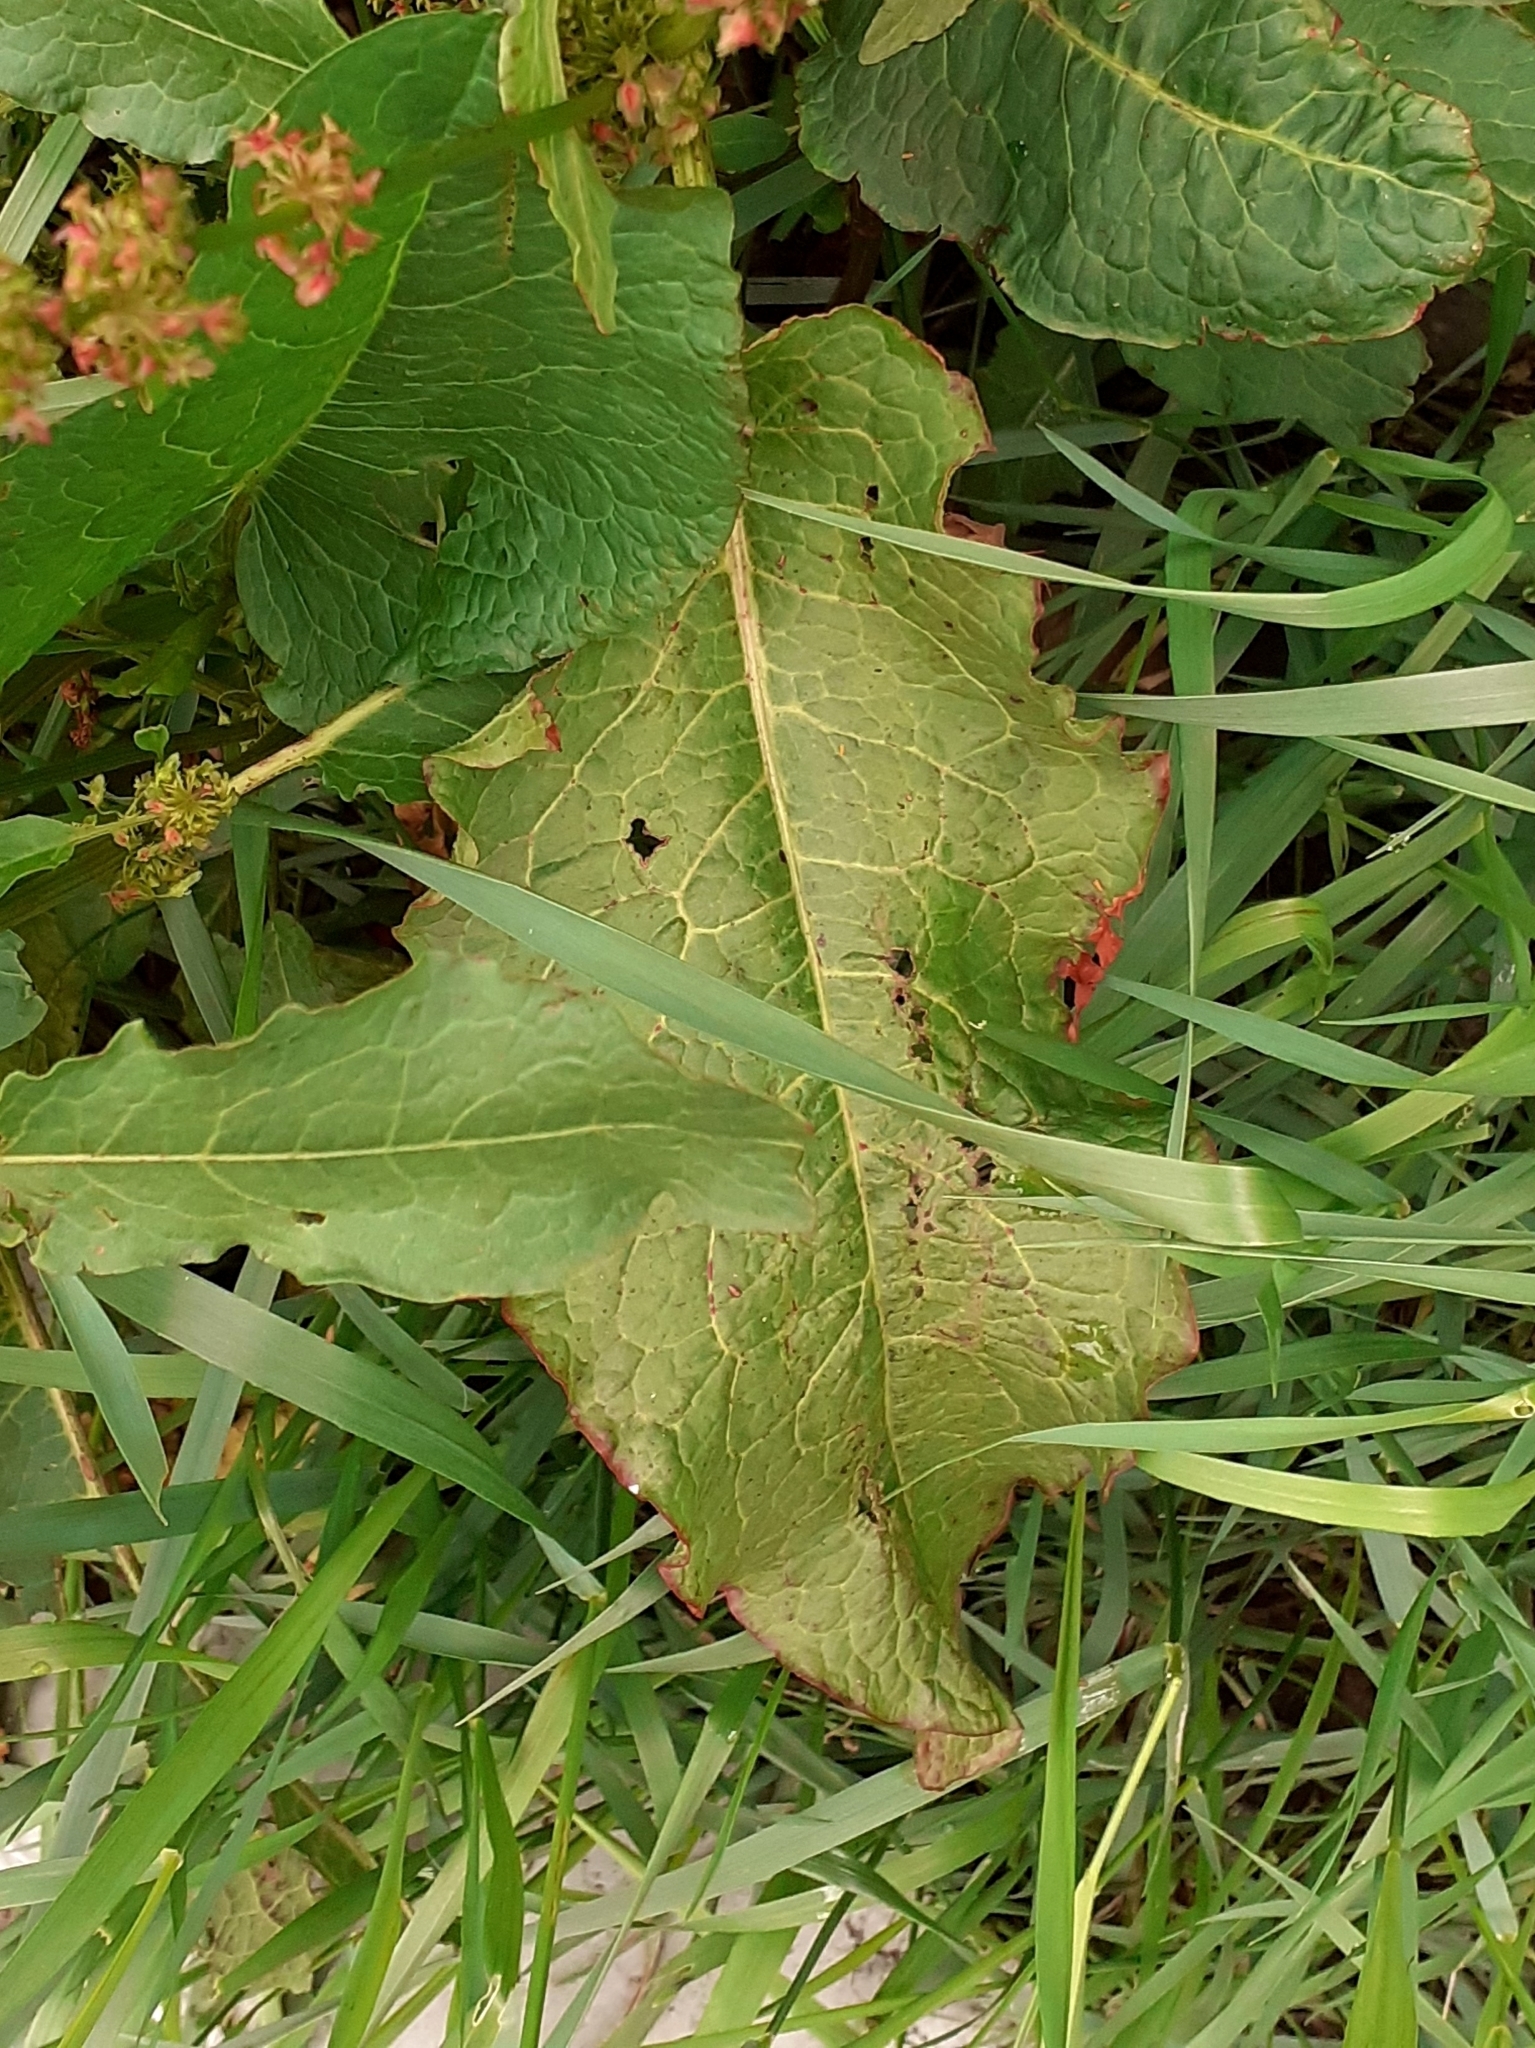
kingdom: Plantae
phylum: Tracheophyta
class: Magnoliopsida
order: Caryophyllales
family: Polygonaceae
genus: Rumex
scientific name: Rumex obtusifolius
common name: Bitter dock
